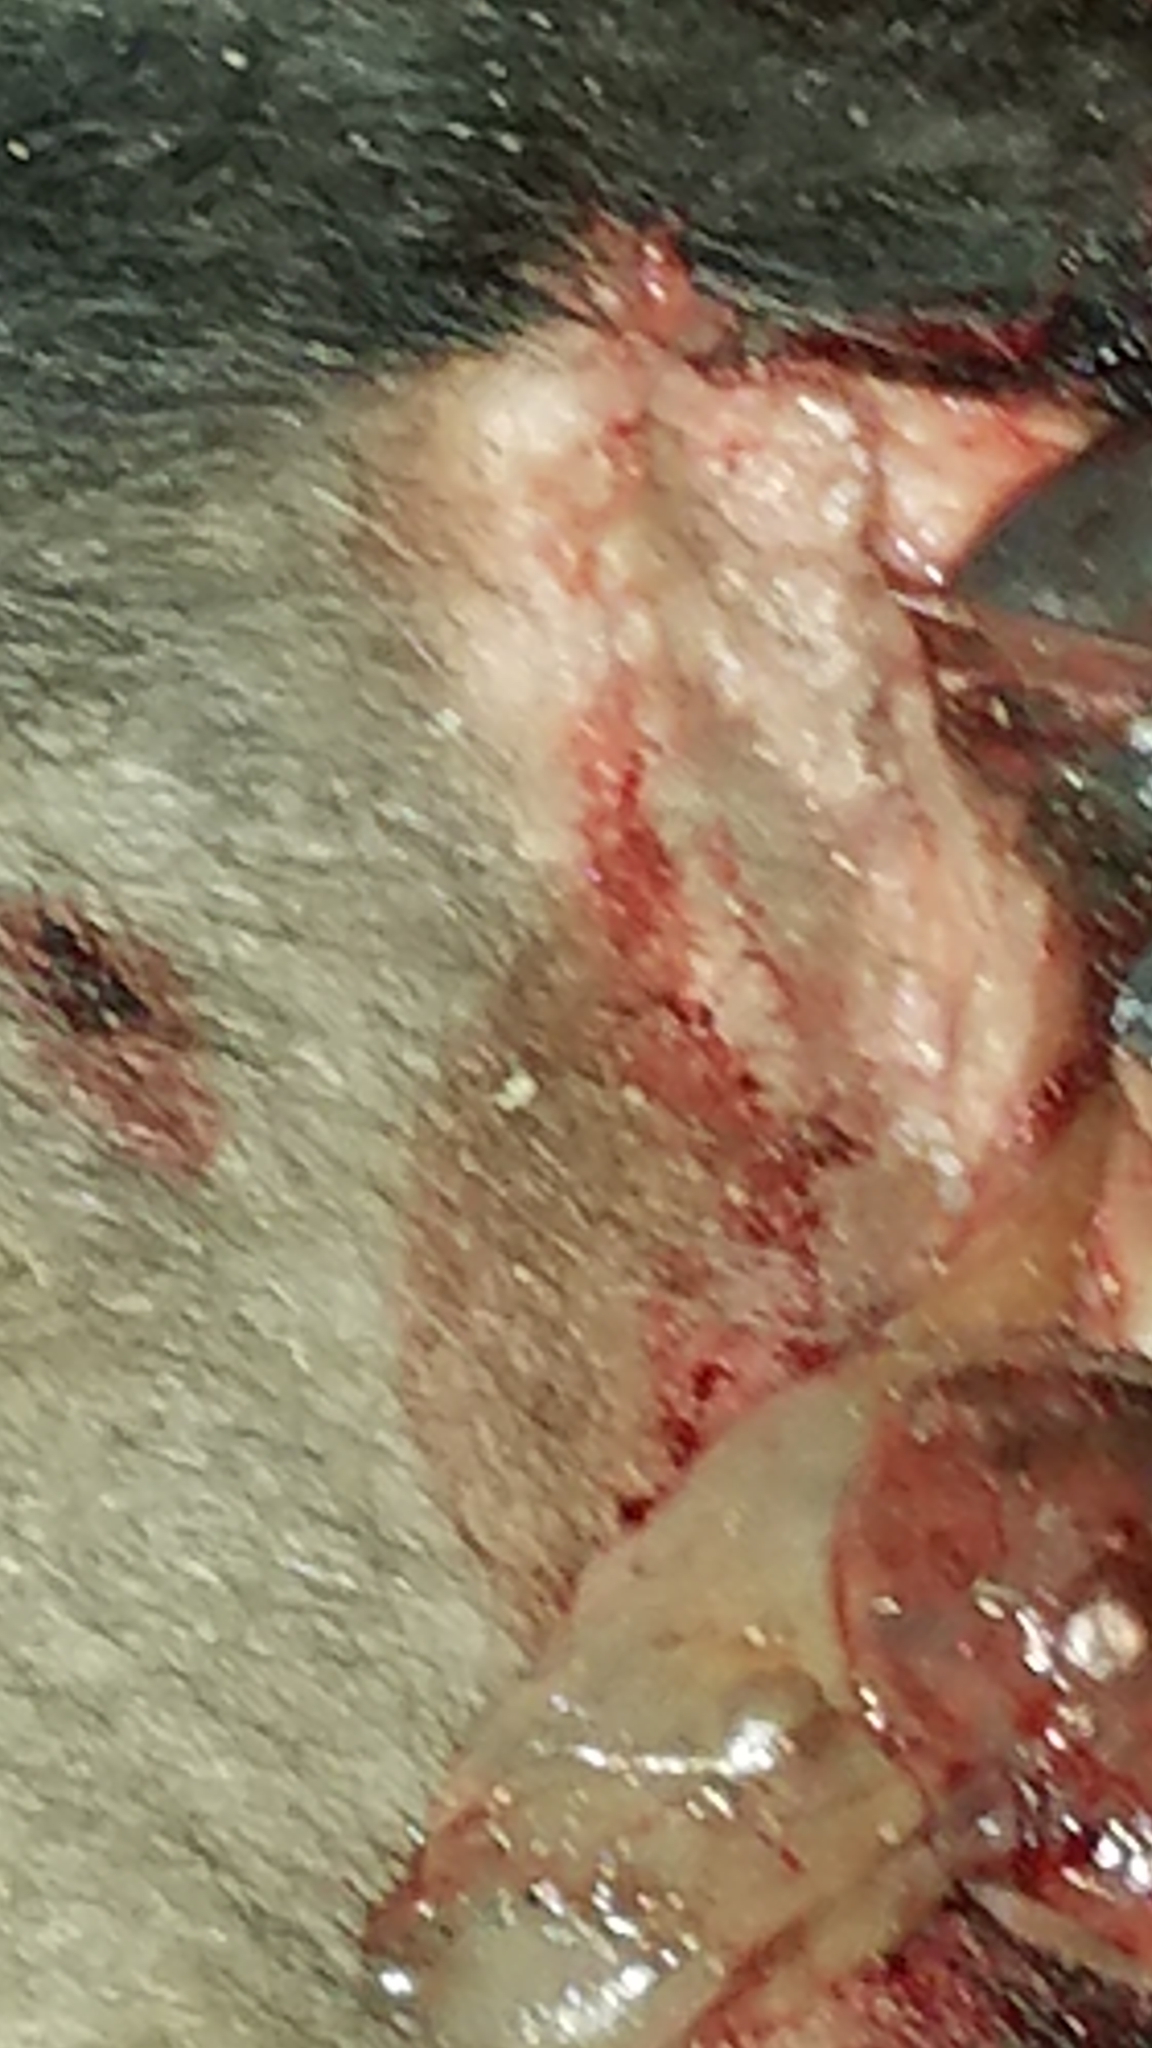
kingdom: Animalia
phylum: Chordata
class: Mammalia
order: Didelphimorphia
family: Didelphidae
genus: Didelphis
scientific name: Didelphis virginiana
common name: Virginia opossum
